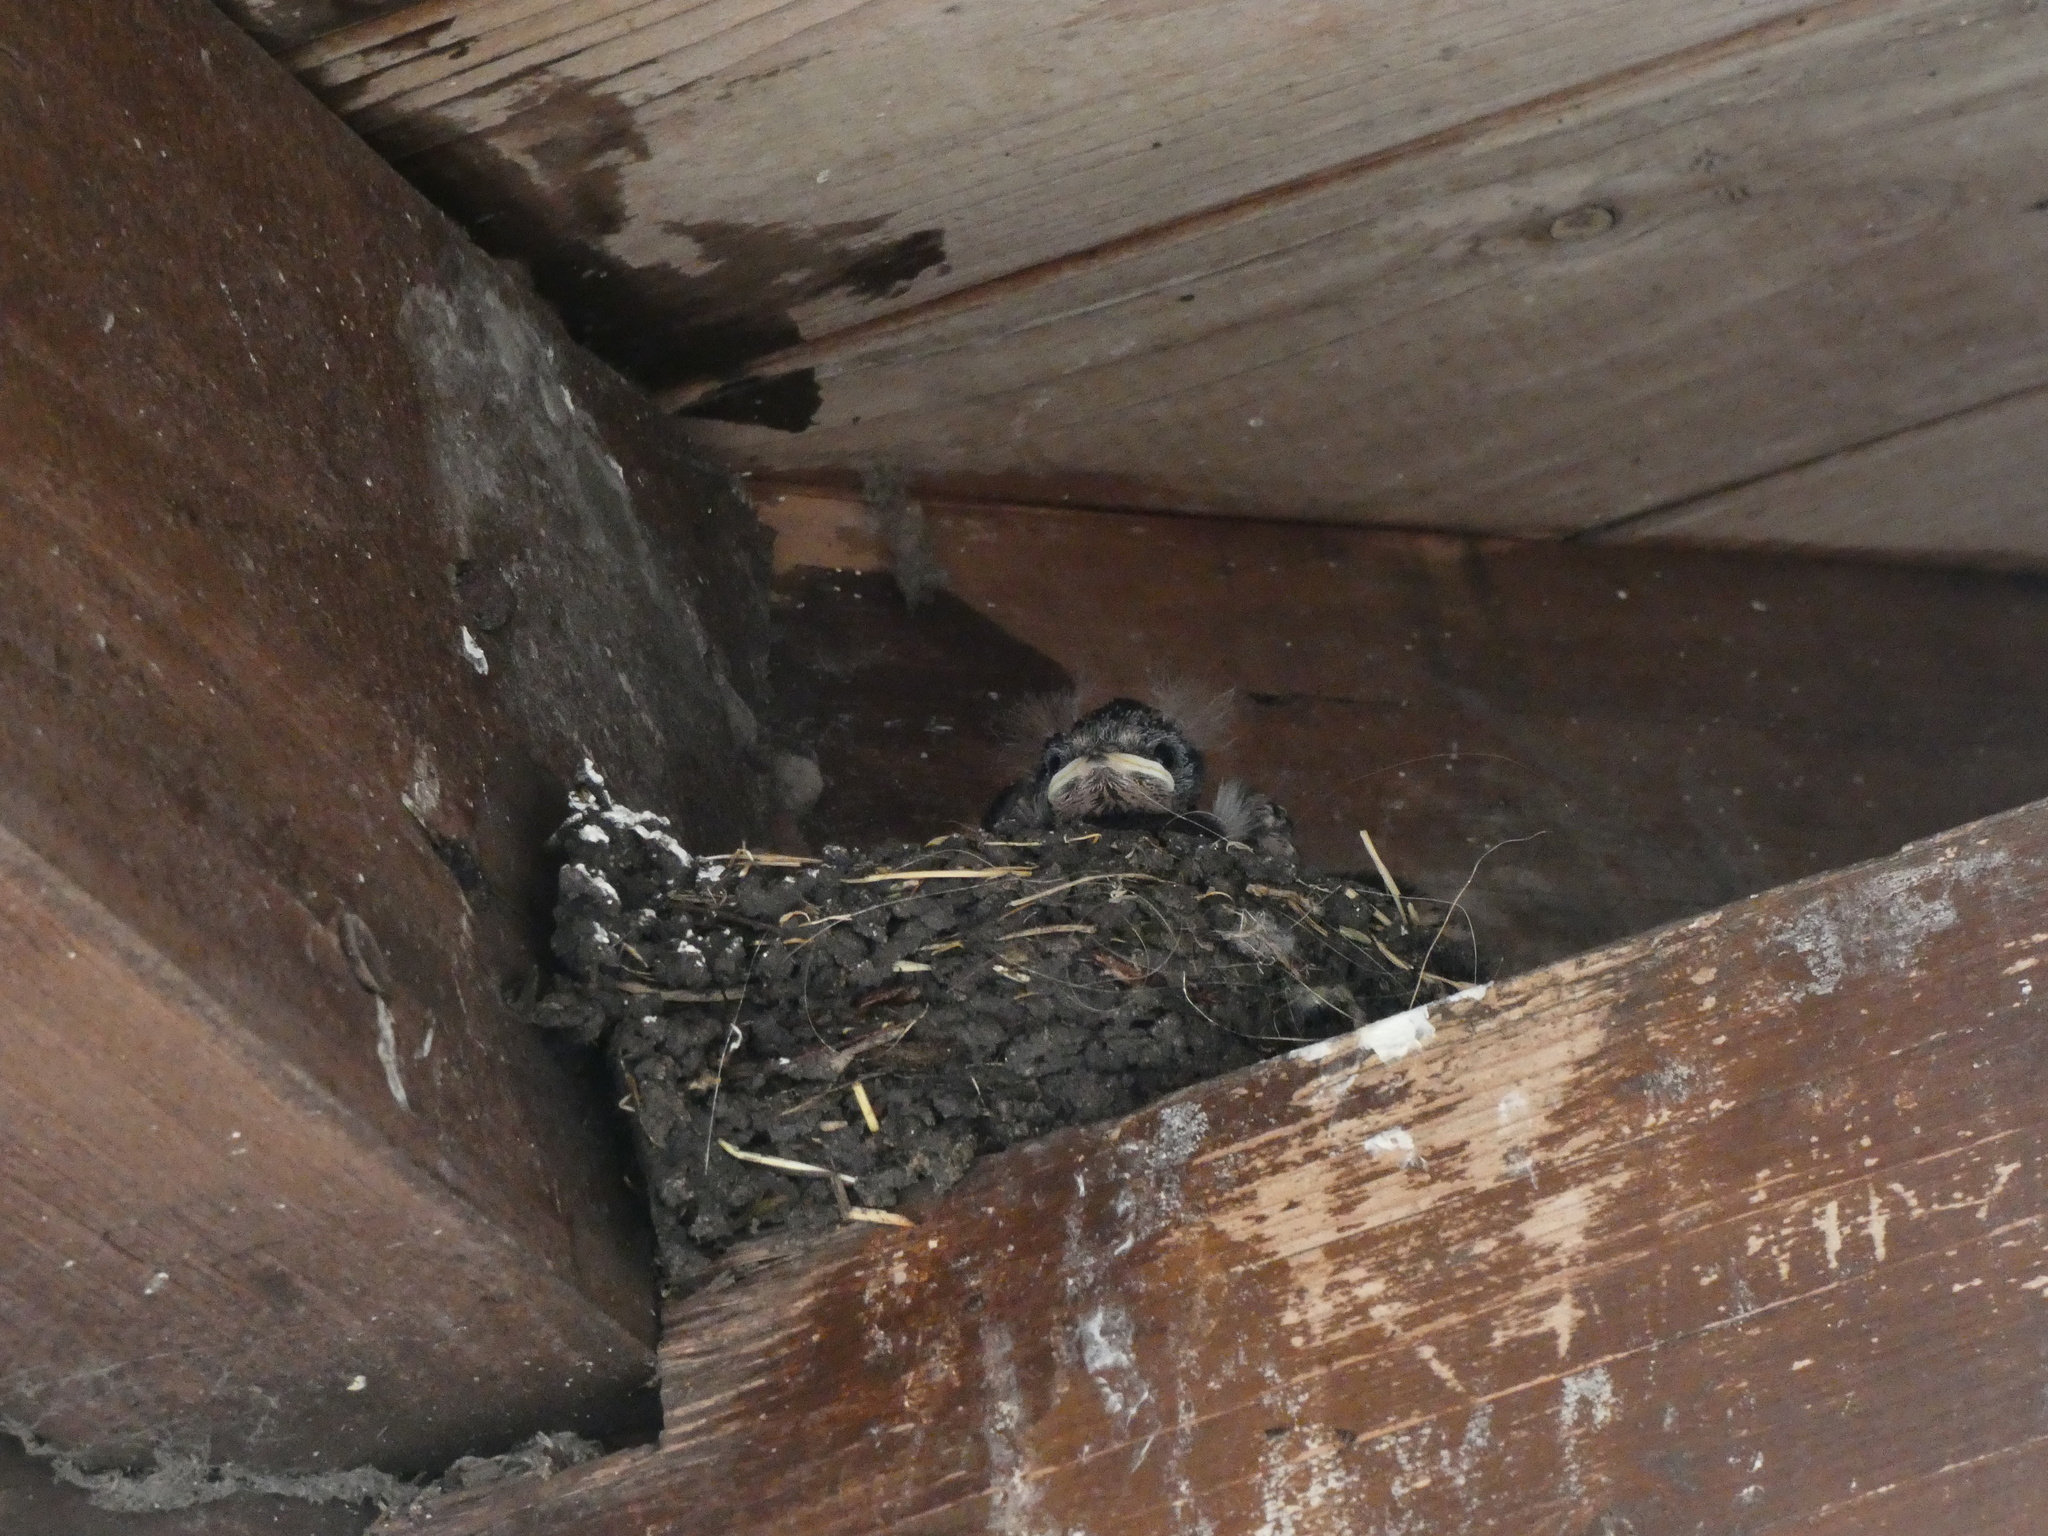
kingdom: Animalia
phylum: Chordata
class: Aves
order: Passeriformes
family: Hirundinidae
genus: Hirundo
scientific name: Hirundo rustica
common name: Barn swallow
